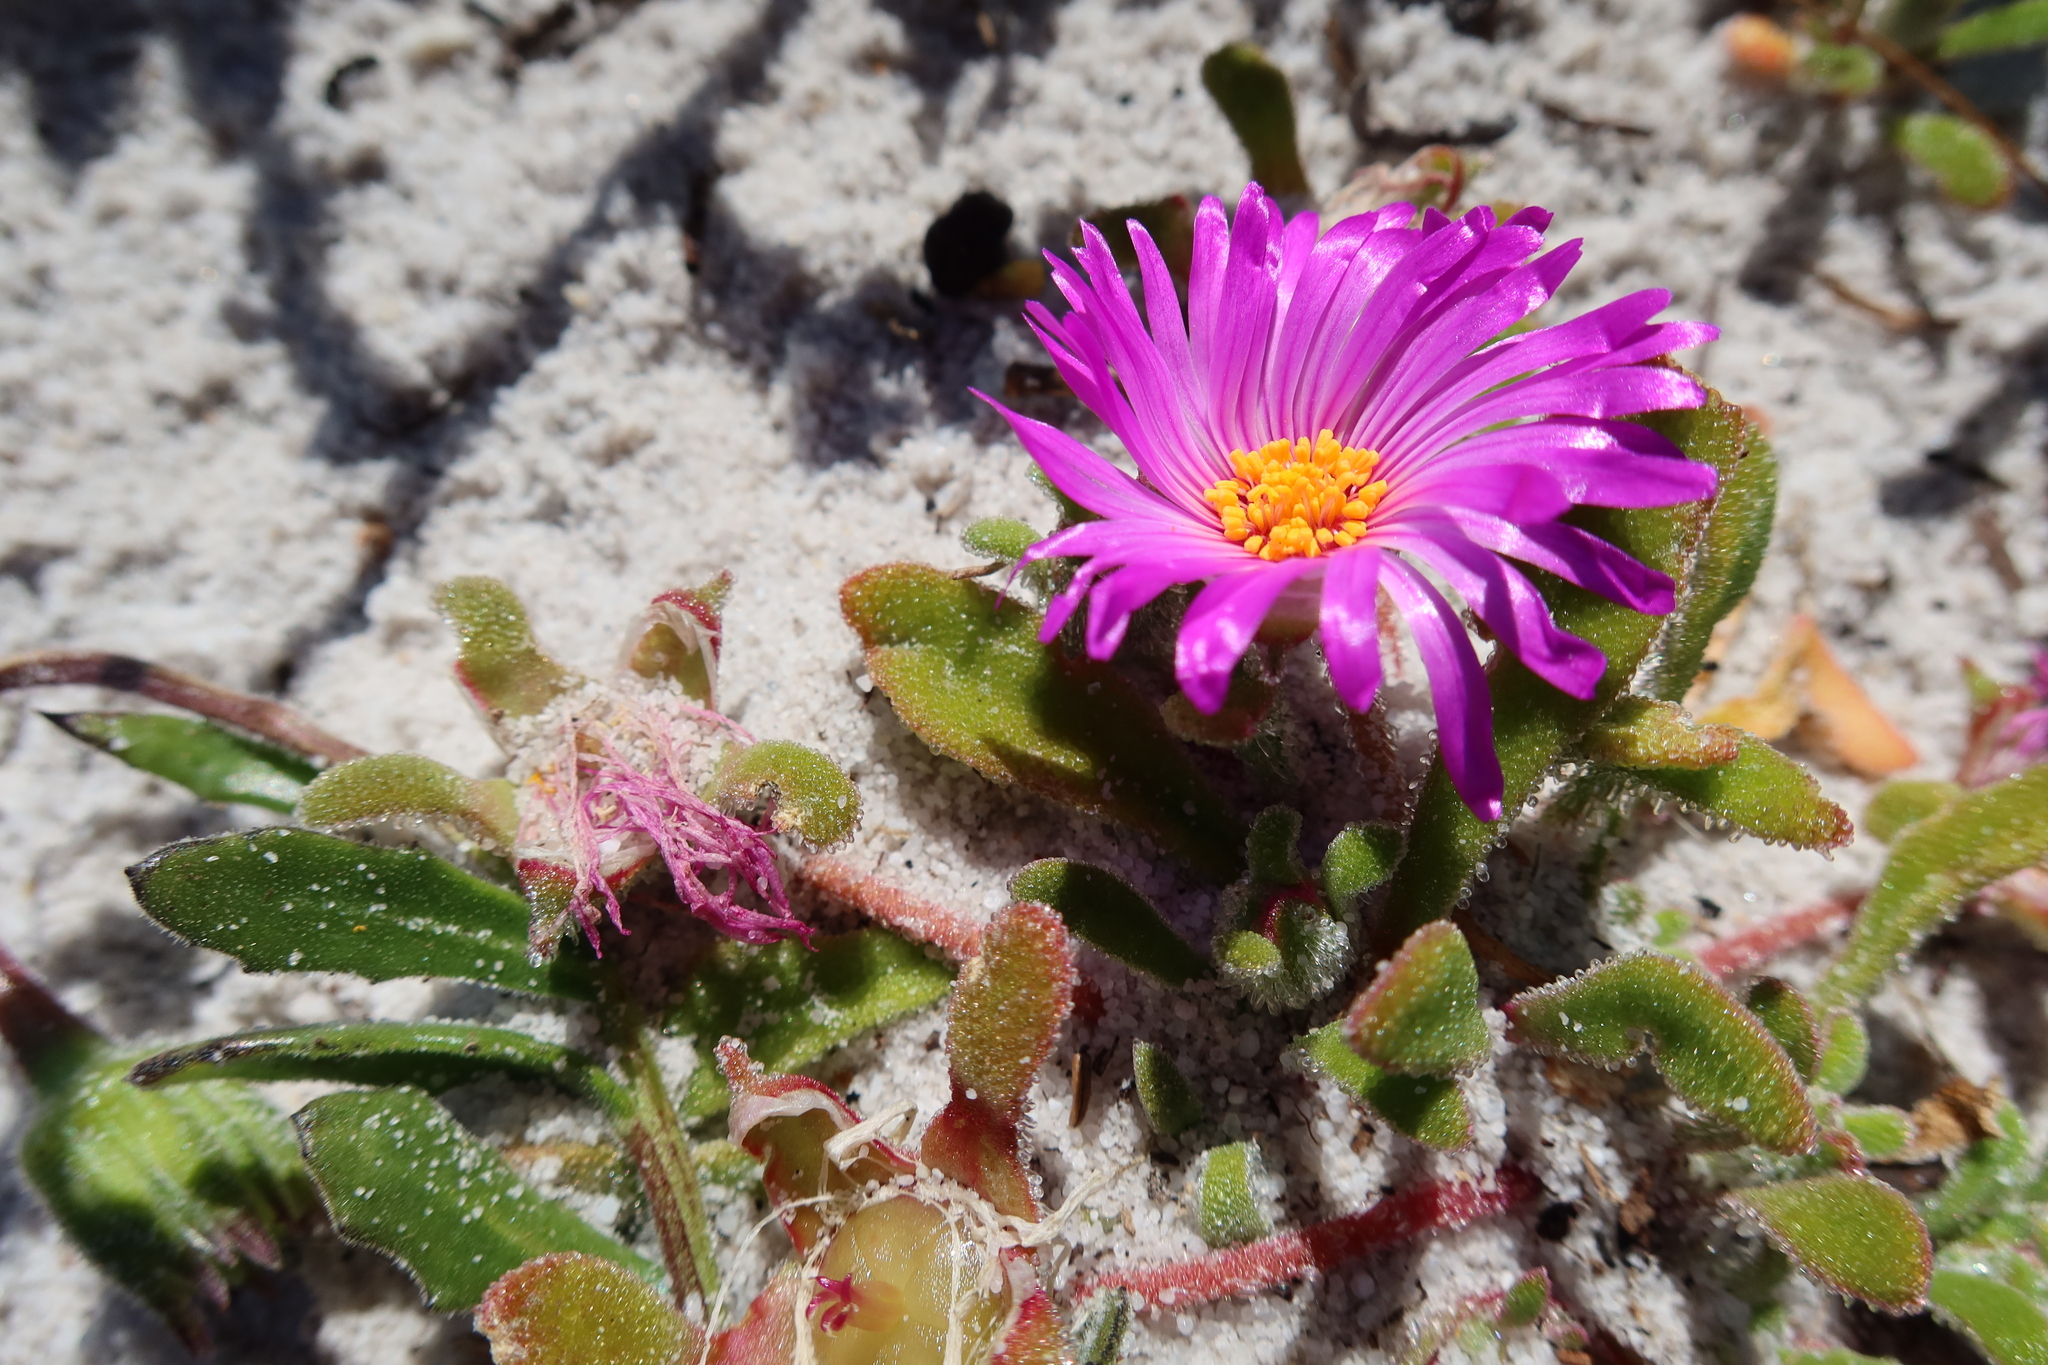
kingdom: Plantae
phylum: Tracheophyta
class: Magnoliopsida
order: Caryophyllales
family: Aizoaceae
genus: Cleretum
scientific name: Cleretum bellidiforme
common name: Livingstone daisy
